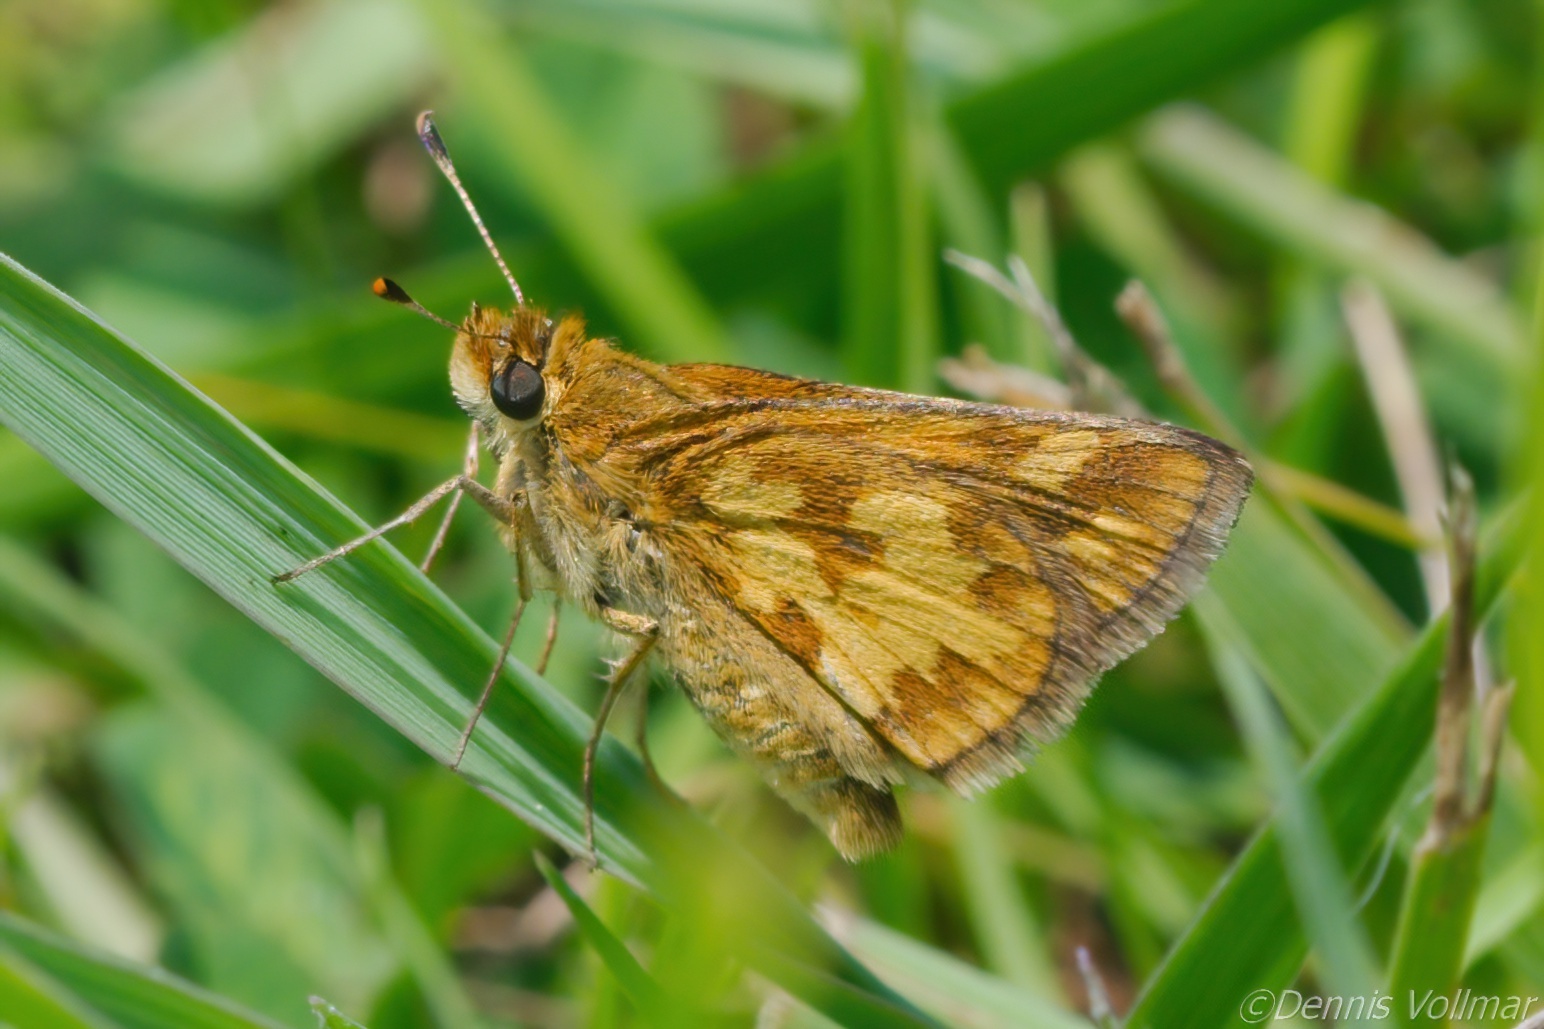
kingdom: Animalia
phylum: Arthropoda
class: Insecta
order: Lepidoptera
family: Hesperiidae
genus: Polites
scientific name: Polites coras
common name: Peck's skipper
